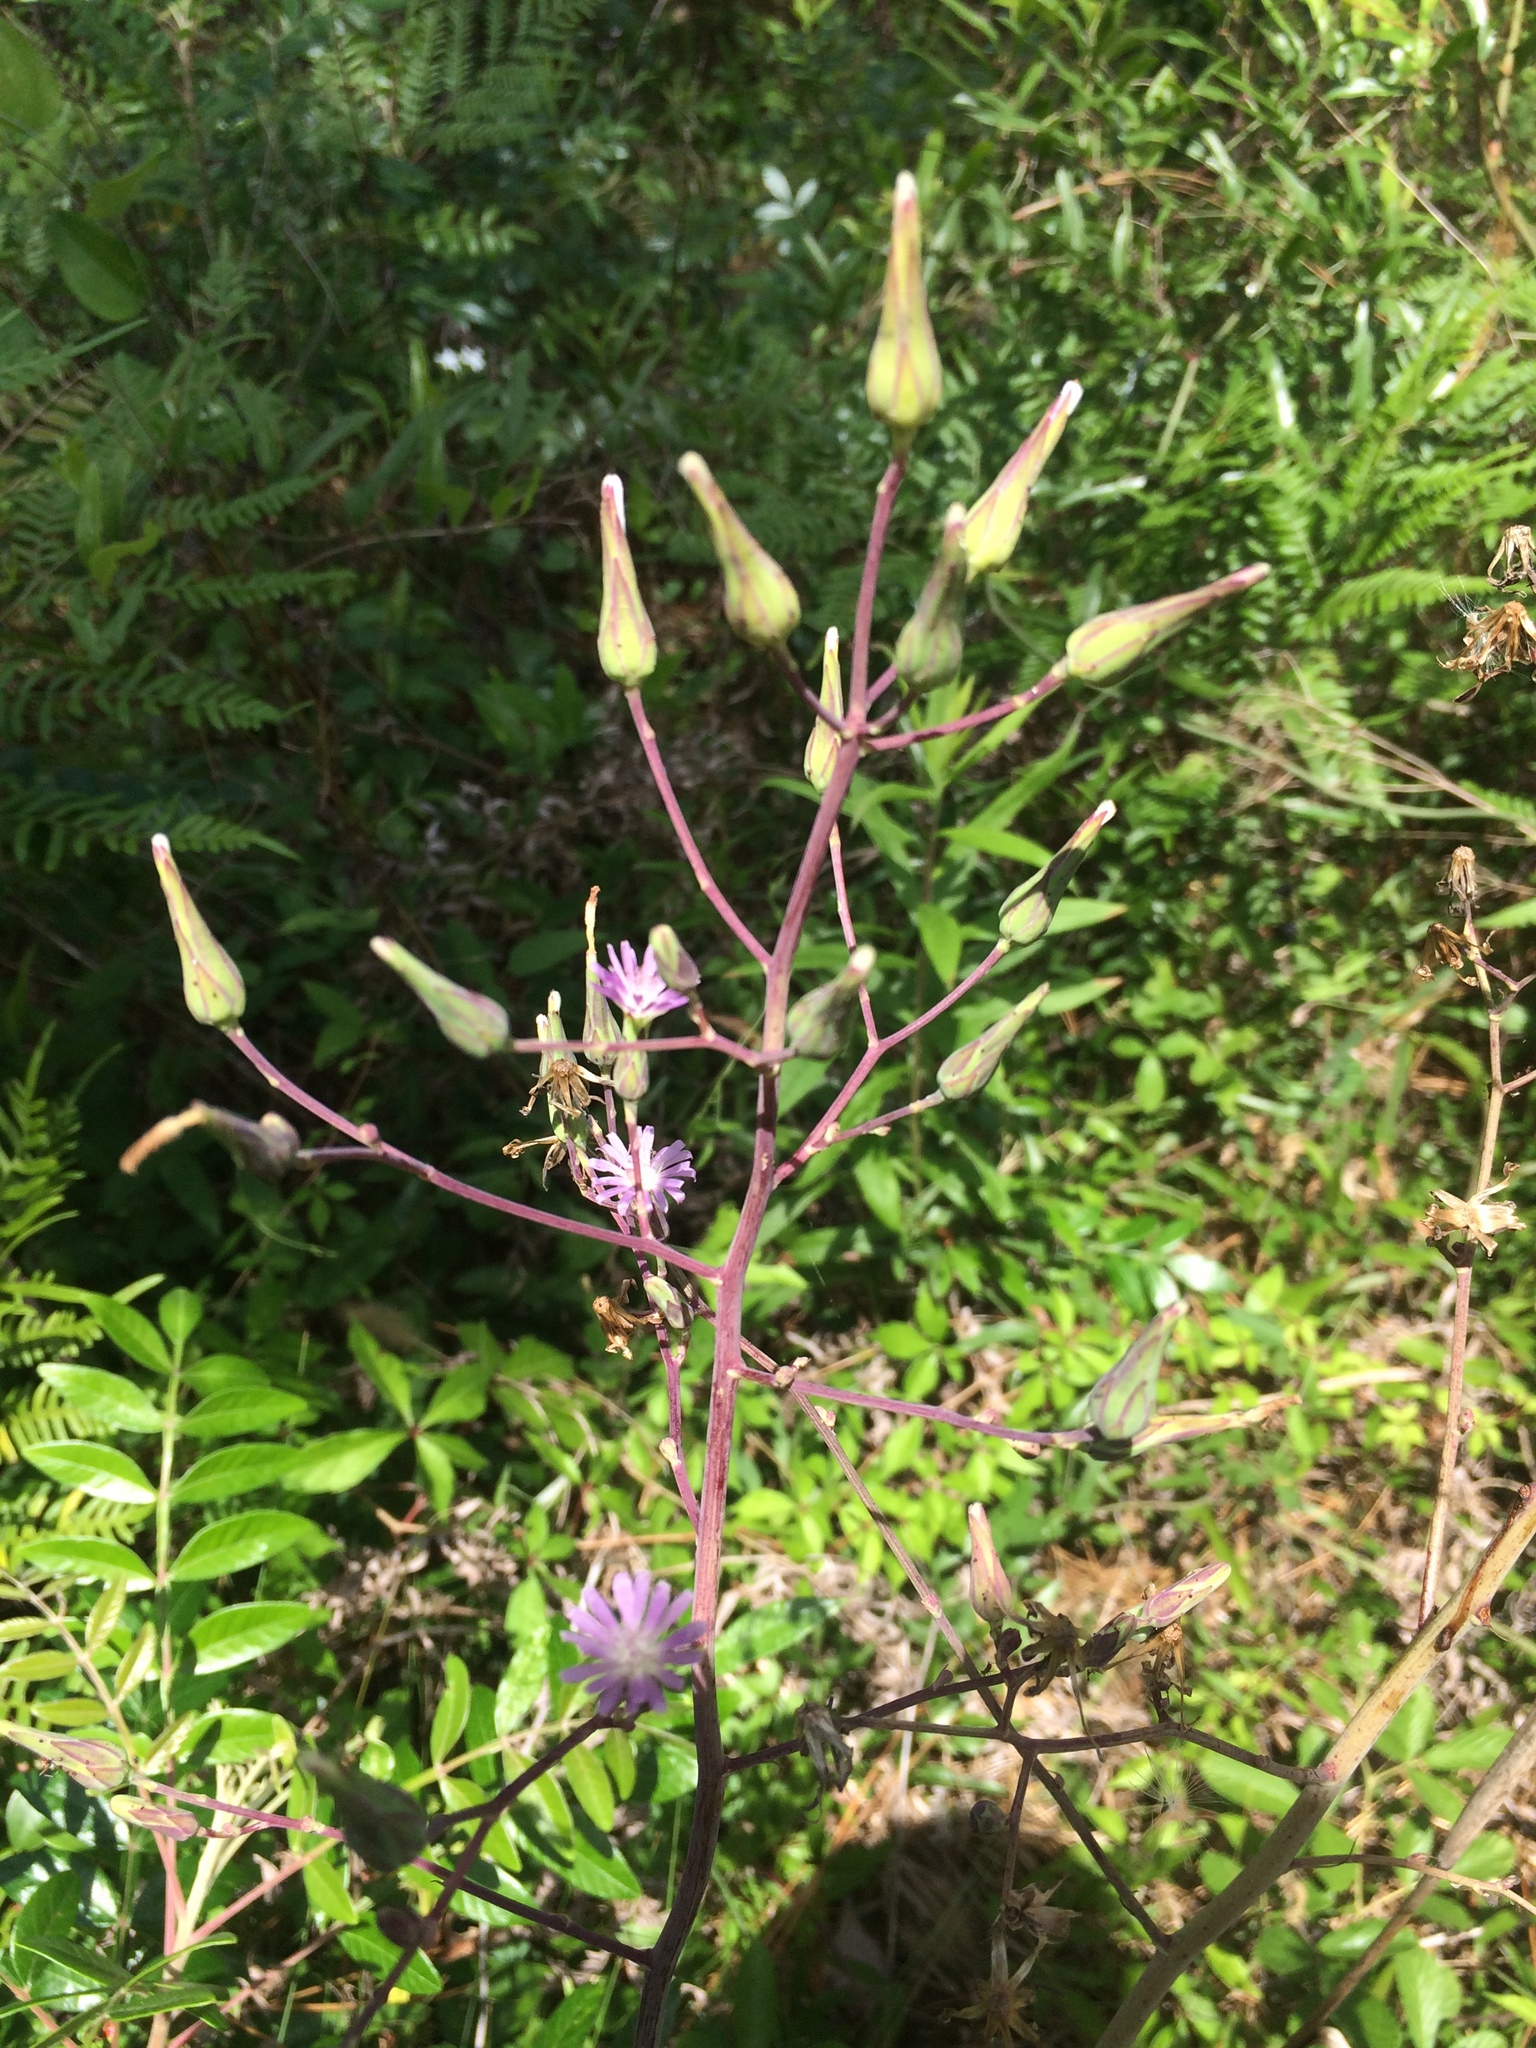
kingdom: Plantae
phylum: Tracheophyta
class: Magnoliopsida
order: Asterales
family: Asteraceae
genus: Lactuca
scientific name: Lactuca graminifolia
